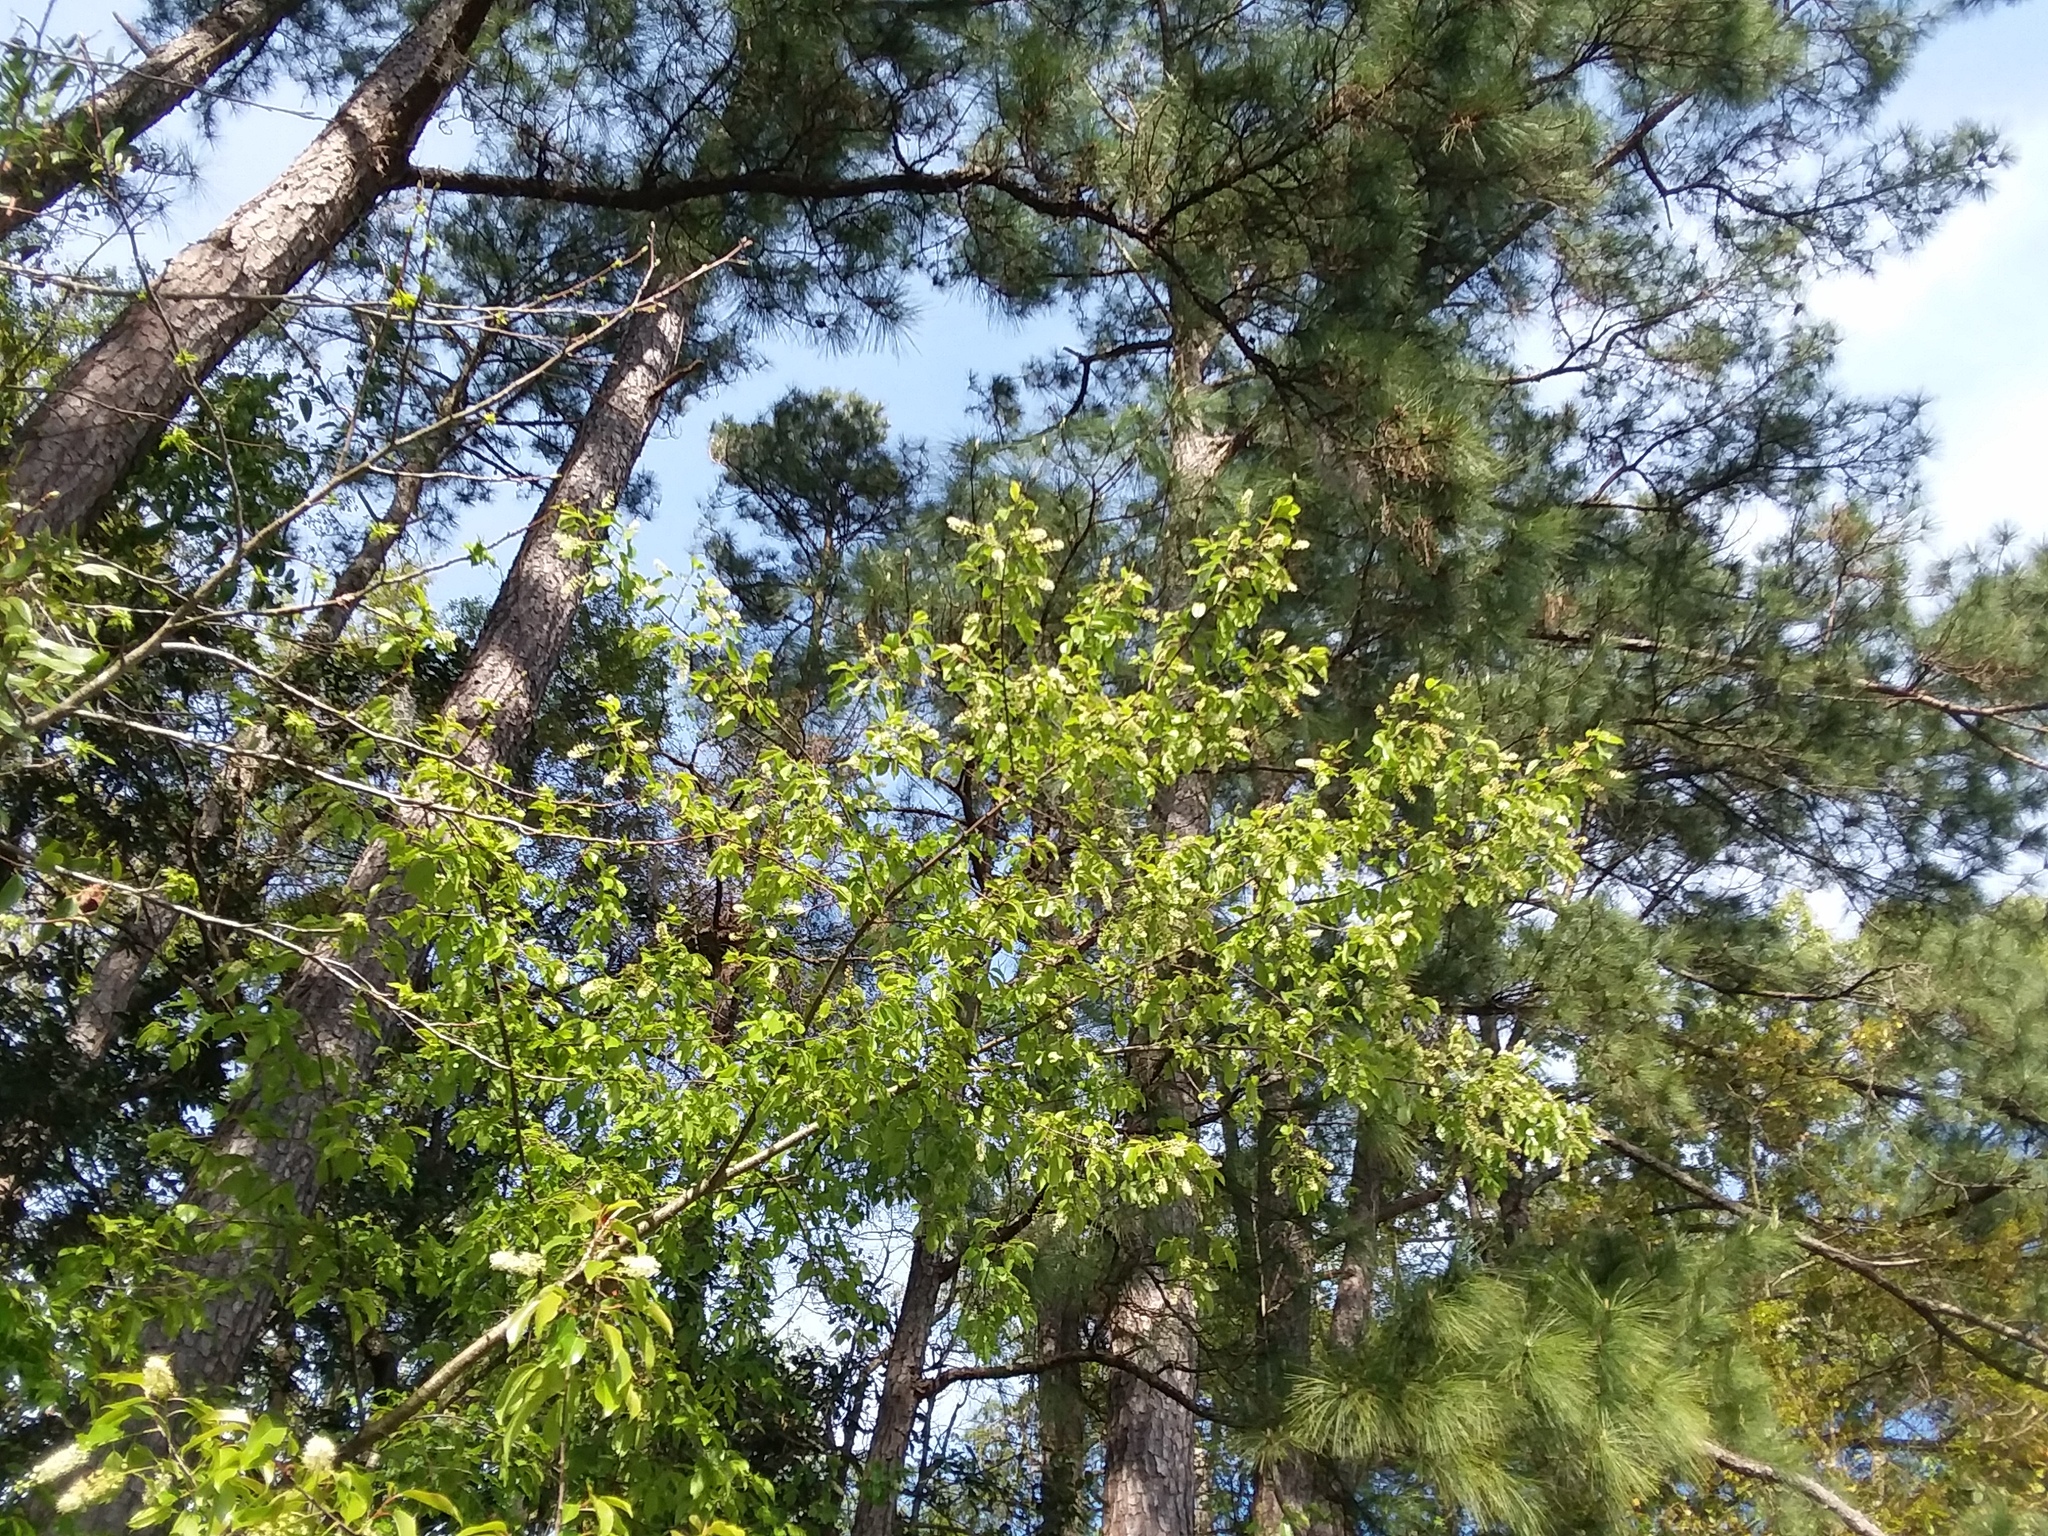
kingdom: Plantae
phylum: Tracheophyta
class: Magnoliopsida
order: Rosales
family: Rosaceae
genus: Prunus
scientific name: Prunus serotina
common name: Black cherry
